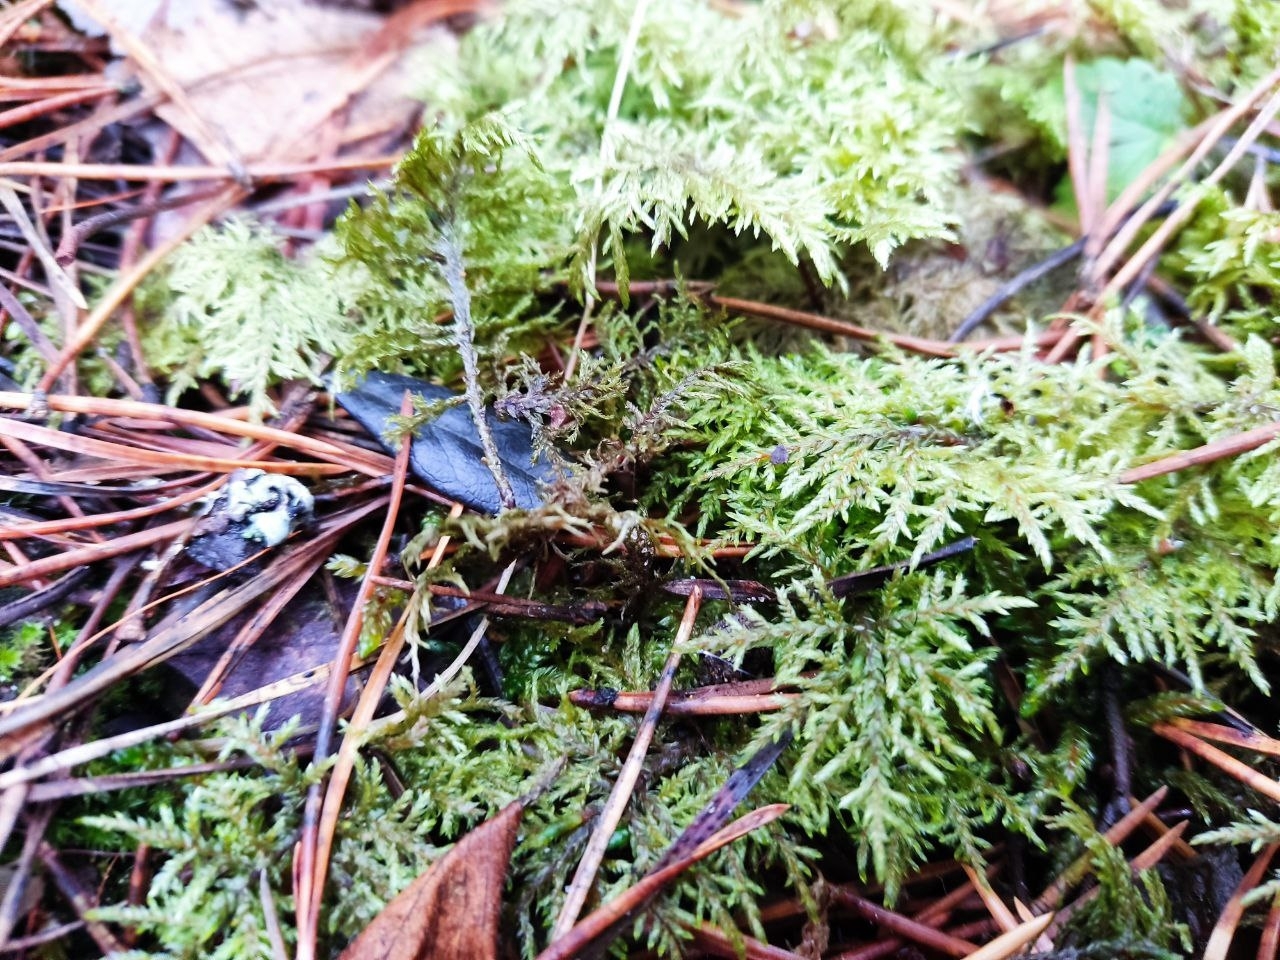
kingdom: Plantae
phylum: Bryophyta
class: Bryopsida
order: Hypnales
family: Hylocomiaceae
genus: Hylocomium
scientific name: Hylocomium splendens
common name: Stairstep moss
